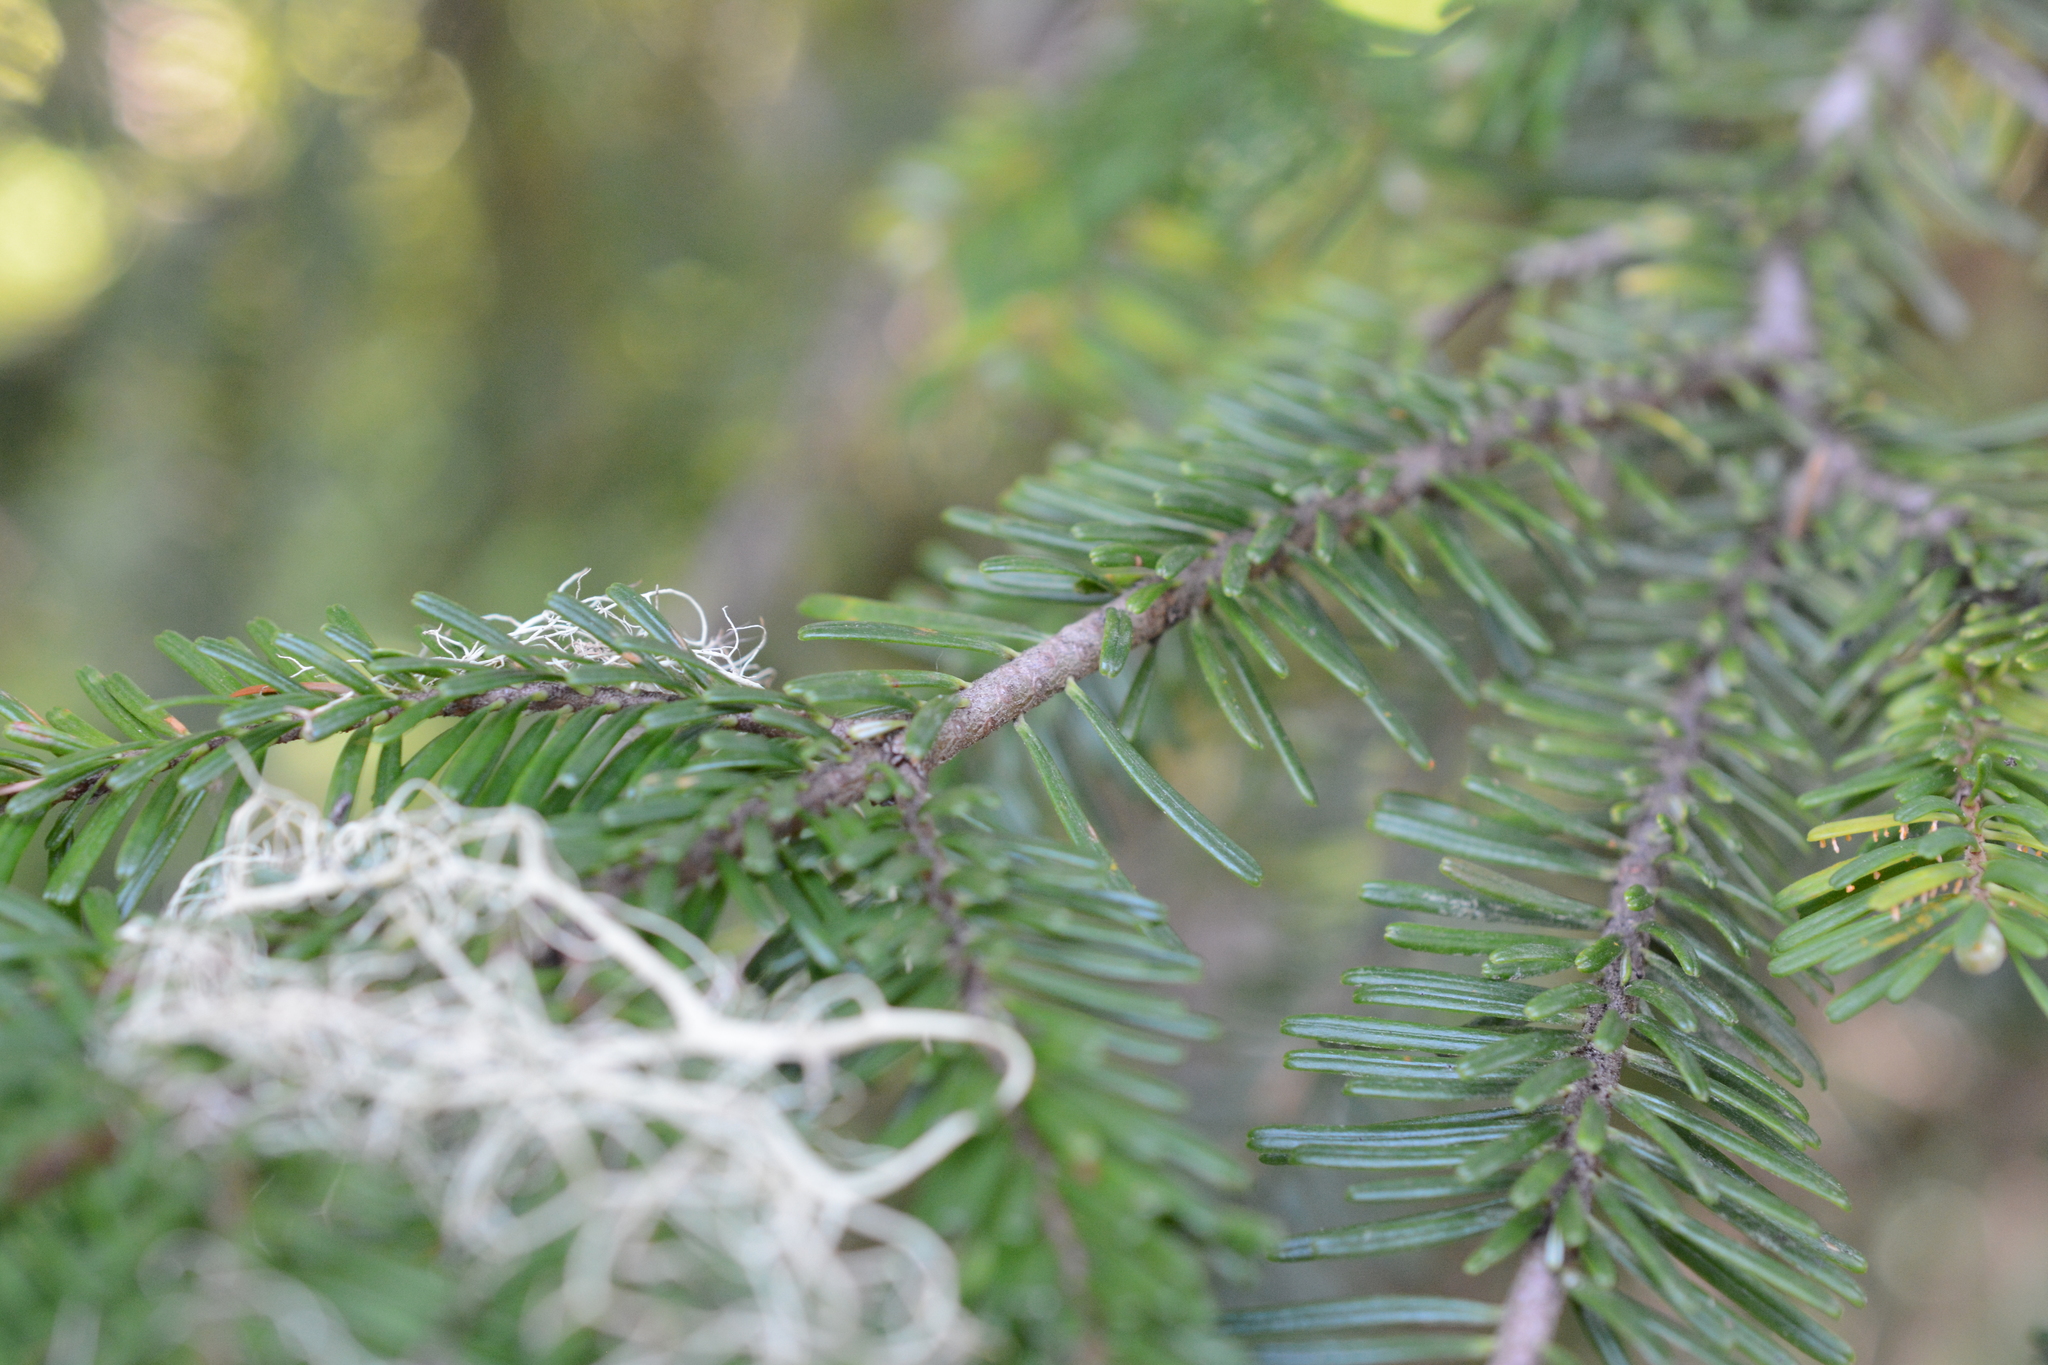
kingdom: Plantae
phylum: Tracheophyta
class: Pinopsida
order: Pinales
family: Pinaceae
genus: Abies
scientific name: Abies amabilis
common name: Pacific silver fir
